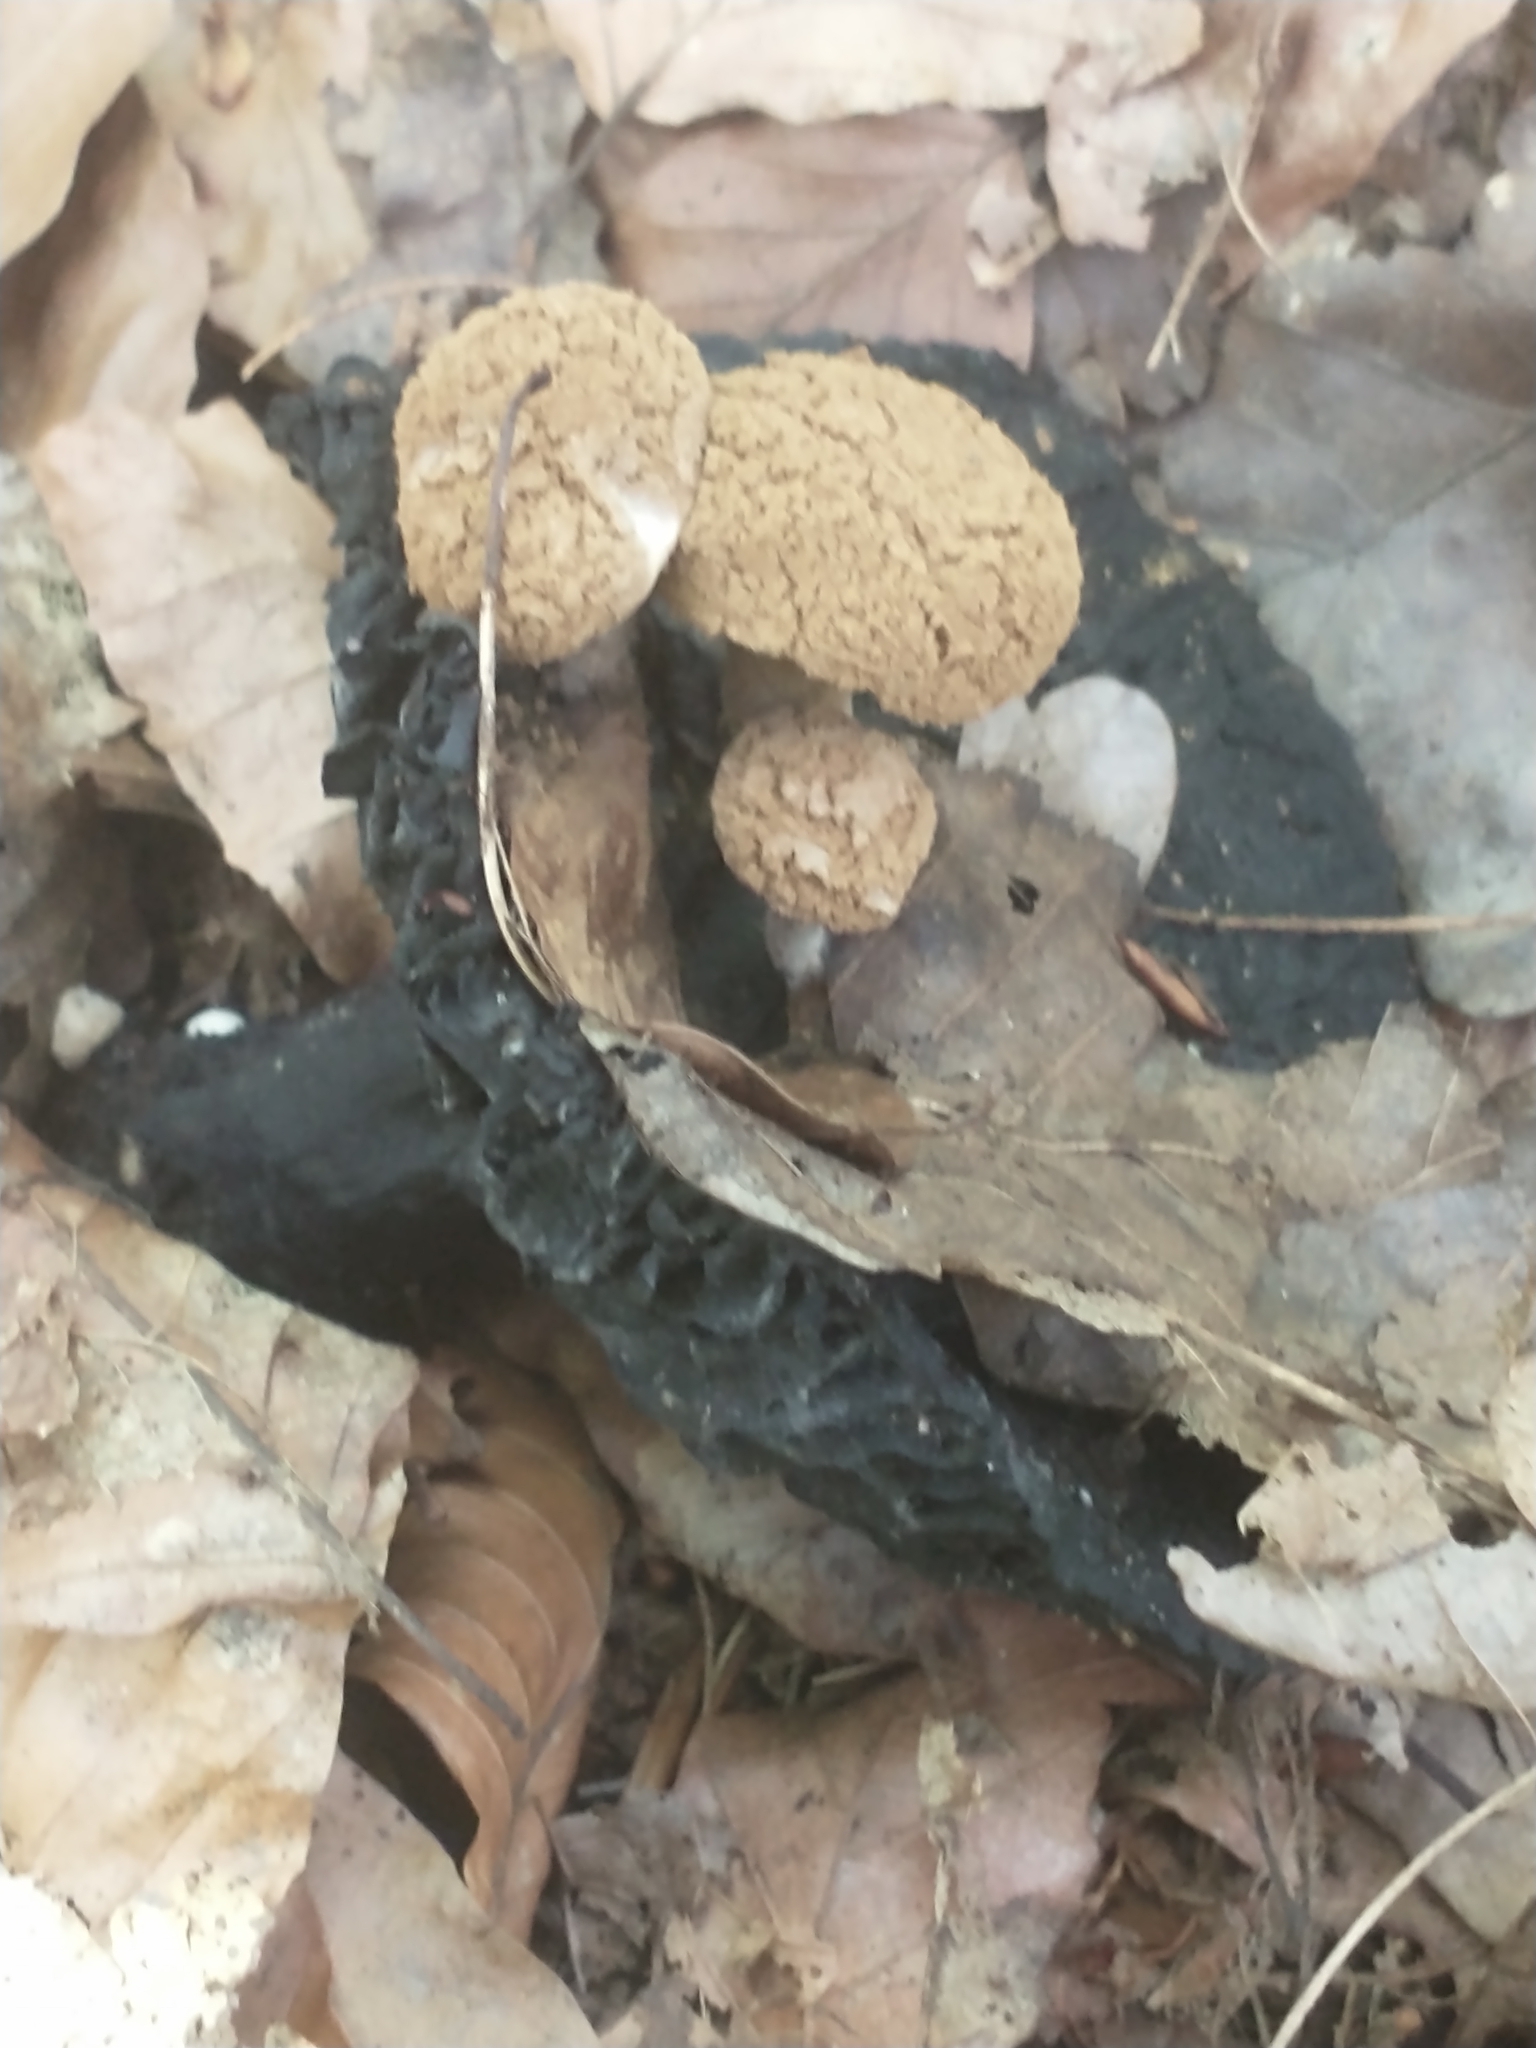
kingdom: Fungi
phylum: Basidiomycota
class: Agaricomycetes
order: Agaricales
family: Lyophyllaceae
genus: Asterophora
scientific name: Asterophora lycoperdoides
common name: Pick-a-back toadstool
